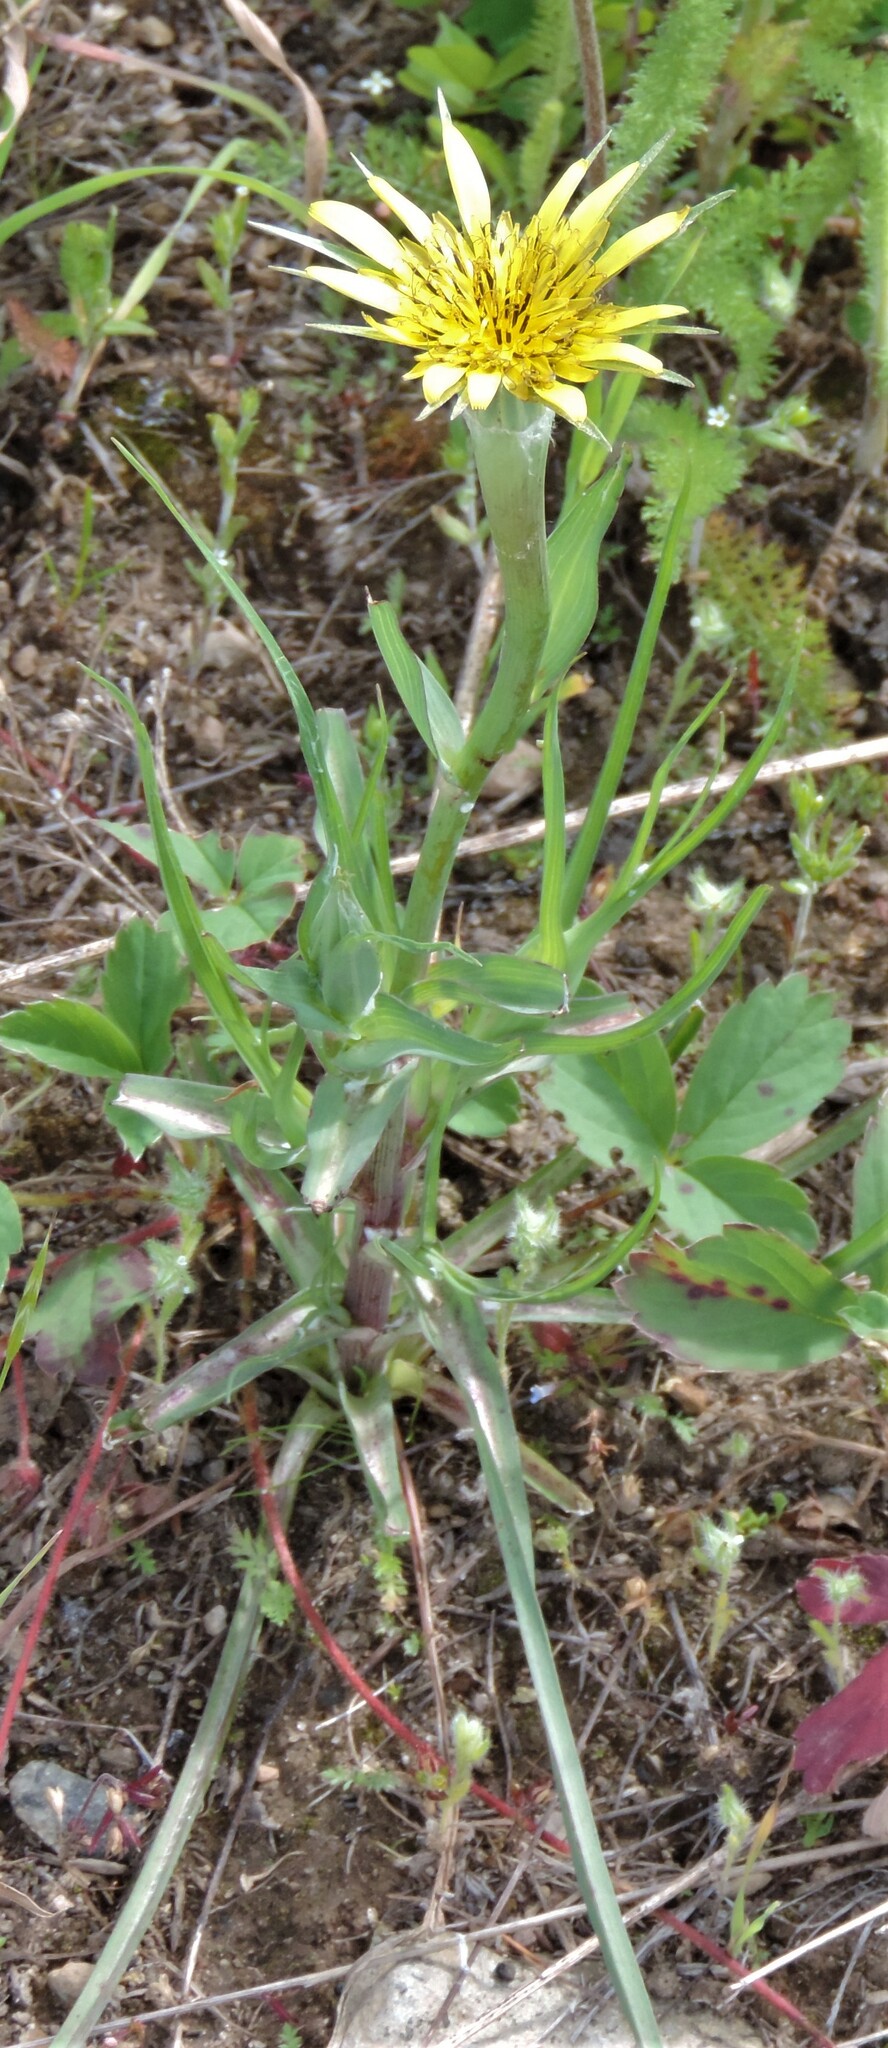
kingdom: Plantae
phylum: Tracheophyta
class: Magnoliopsida
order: Asterales
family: Asteraceae
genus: Tragopogon
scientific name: Tragopogon dubius
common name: Yellow salsify
